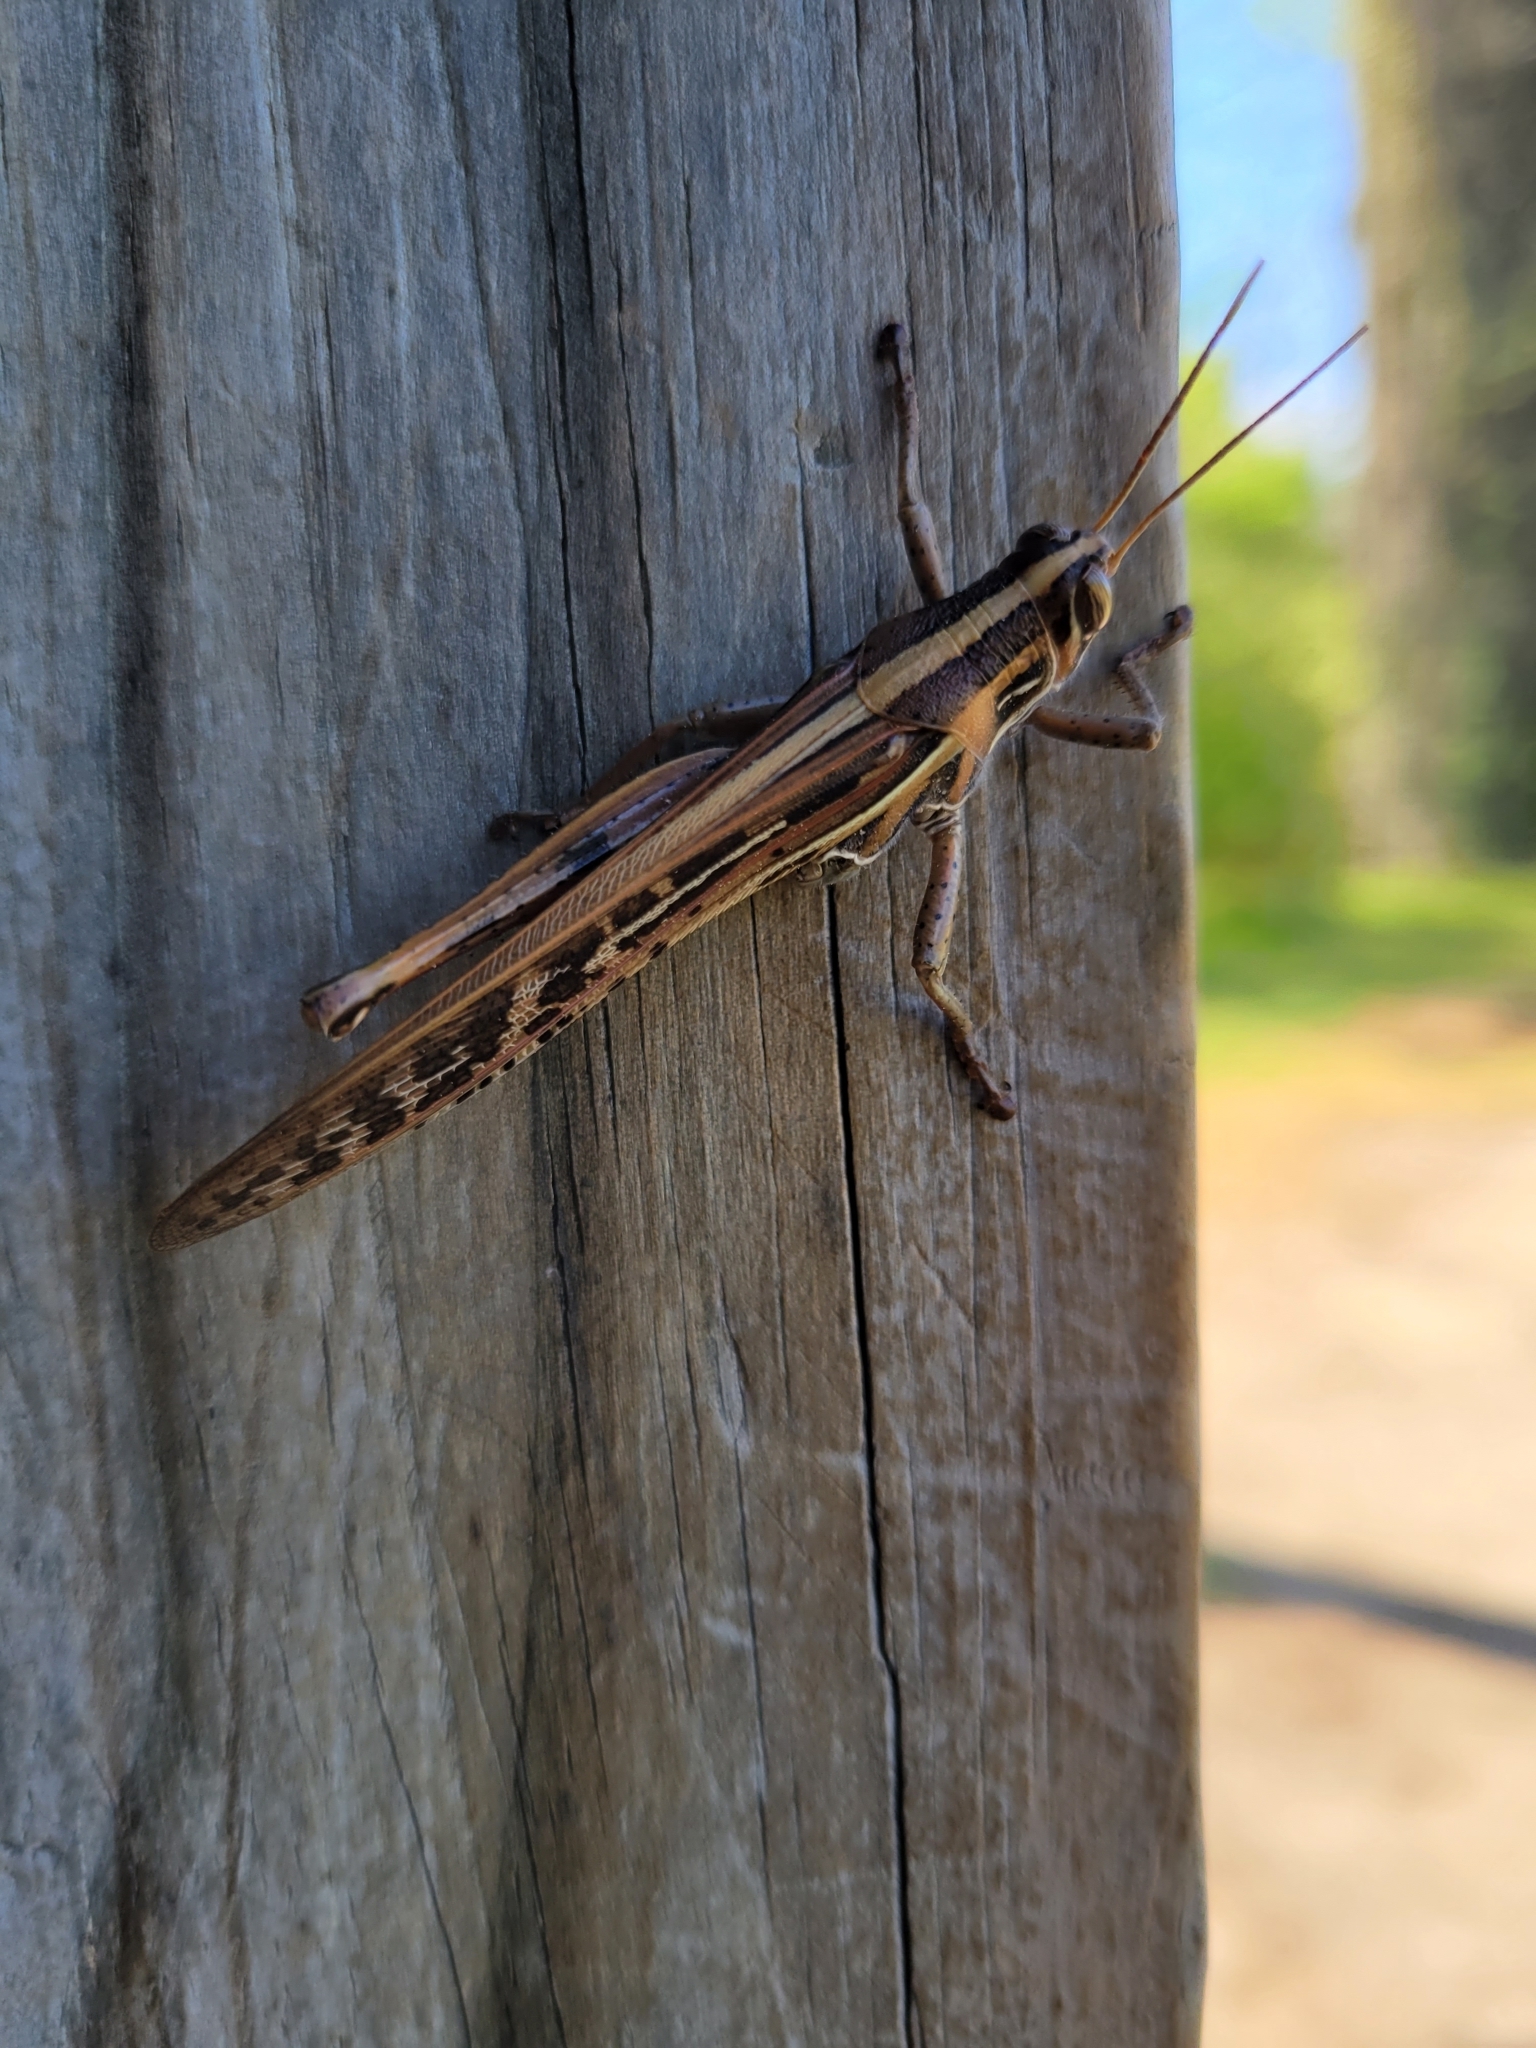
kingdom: Animalia
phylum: Arthropoda
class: Insecta
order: Orthoptera
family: Acrididae
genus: Schistocerca
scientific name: Schistocerca americana
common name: American bird locust
